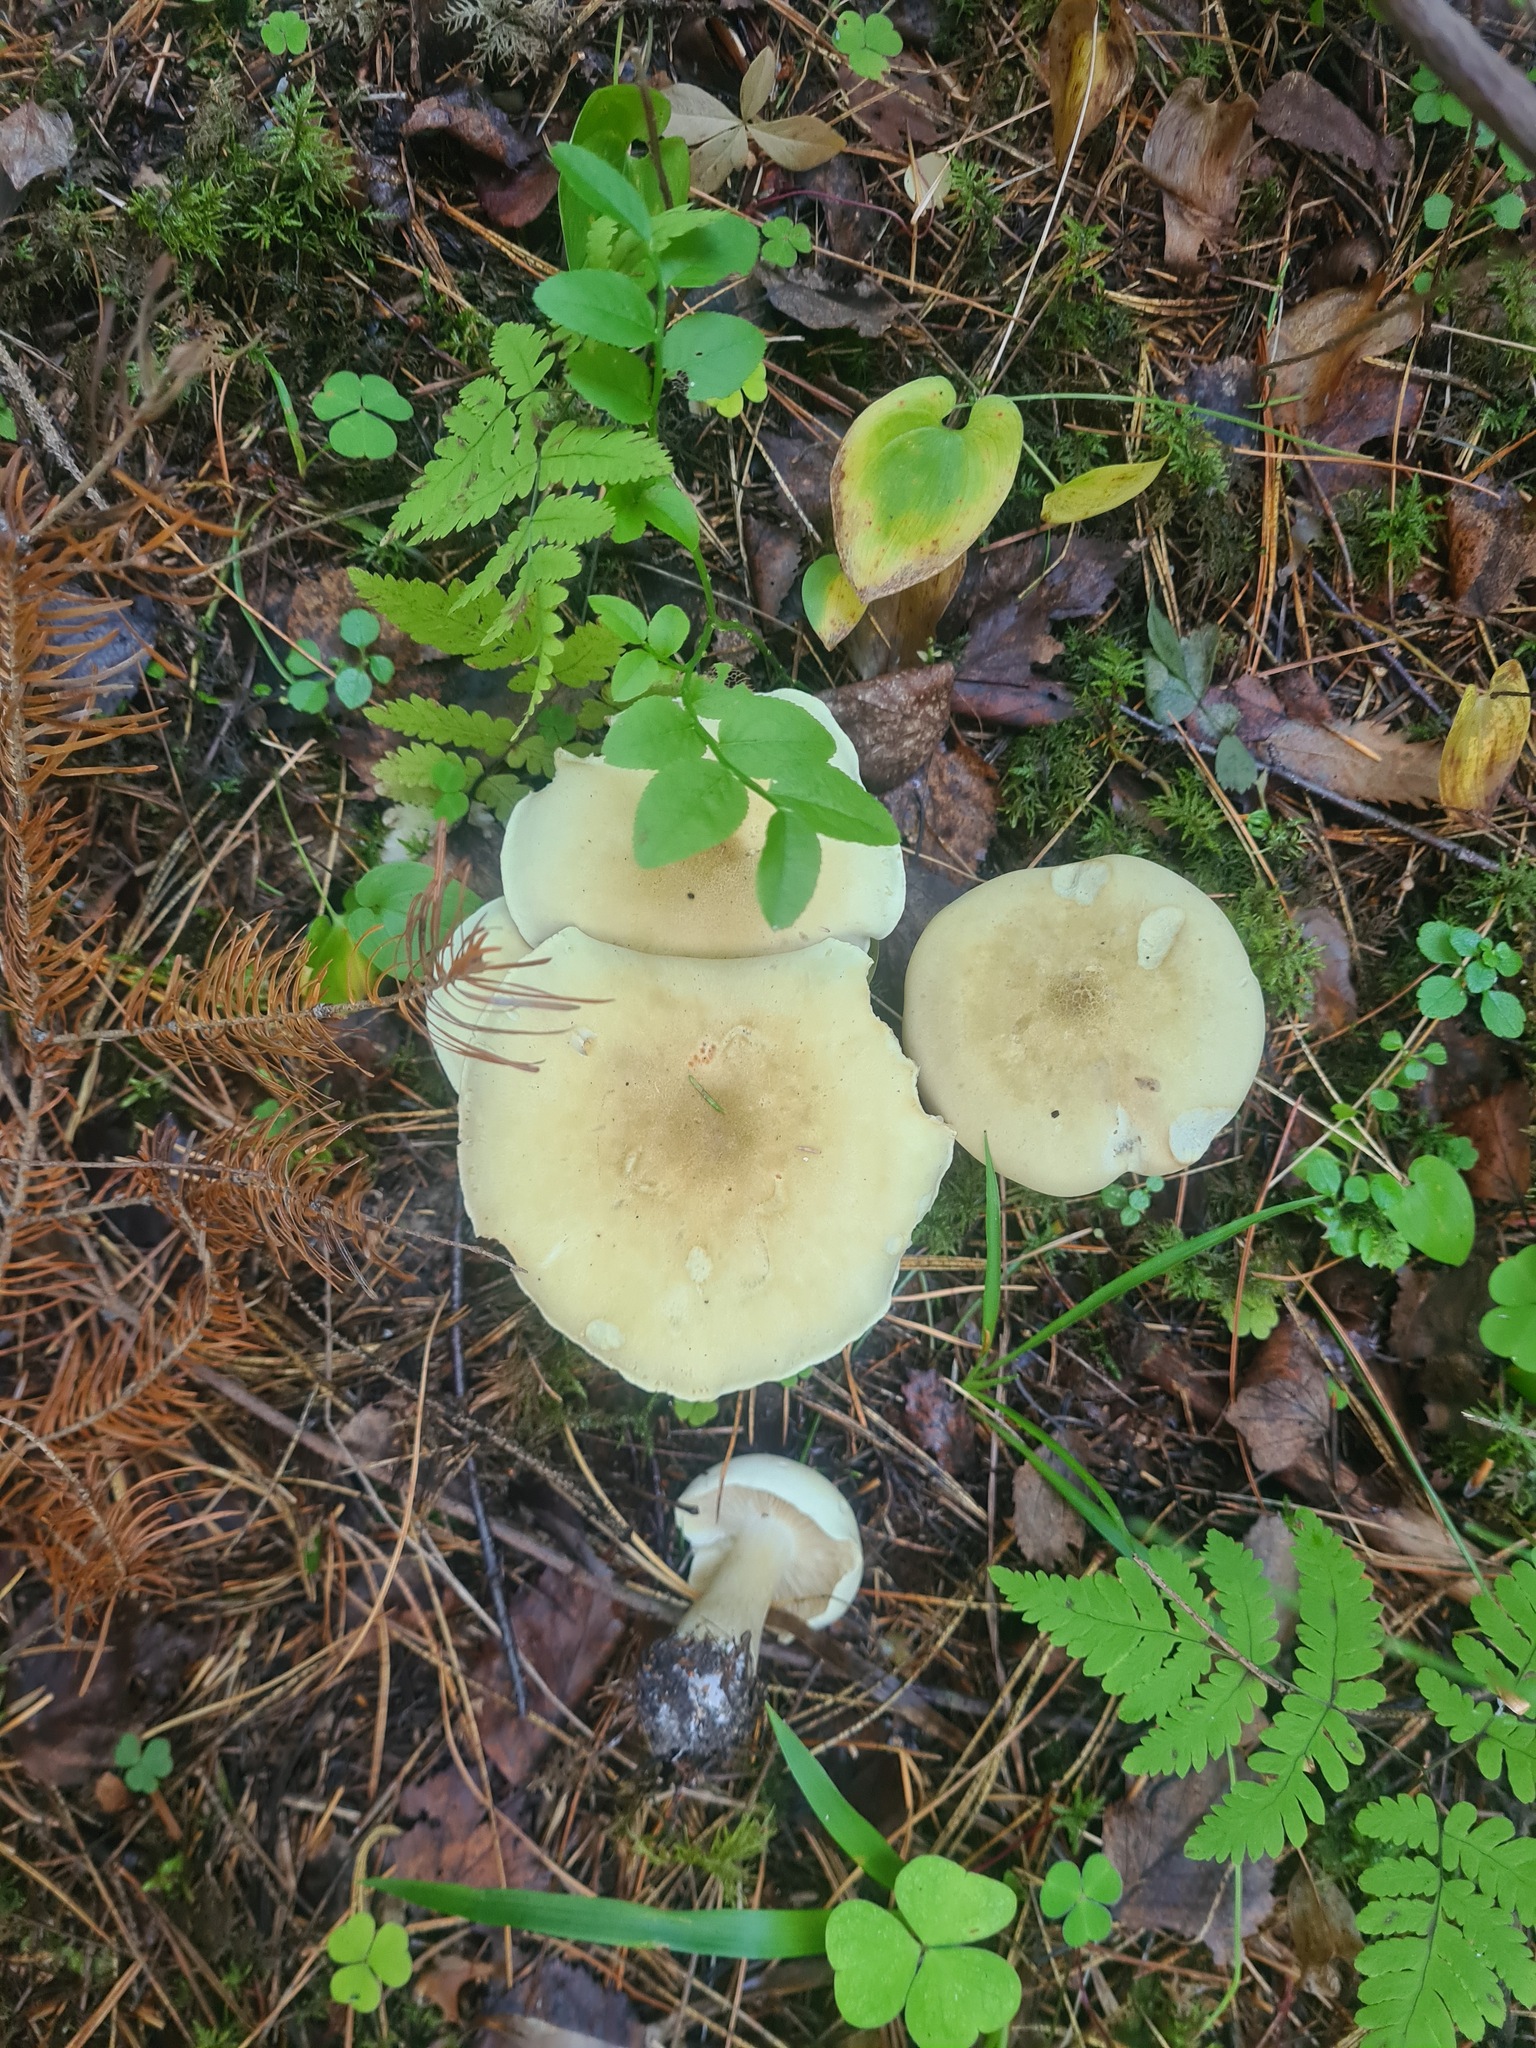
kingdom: Fungi
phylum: Basidiomycota
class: Agaricomycetes
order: Agaricales
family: Tricholomataceae
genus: Tricholoma
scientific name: Tricholoma equestre
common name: Yellow knight
